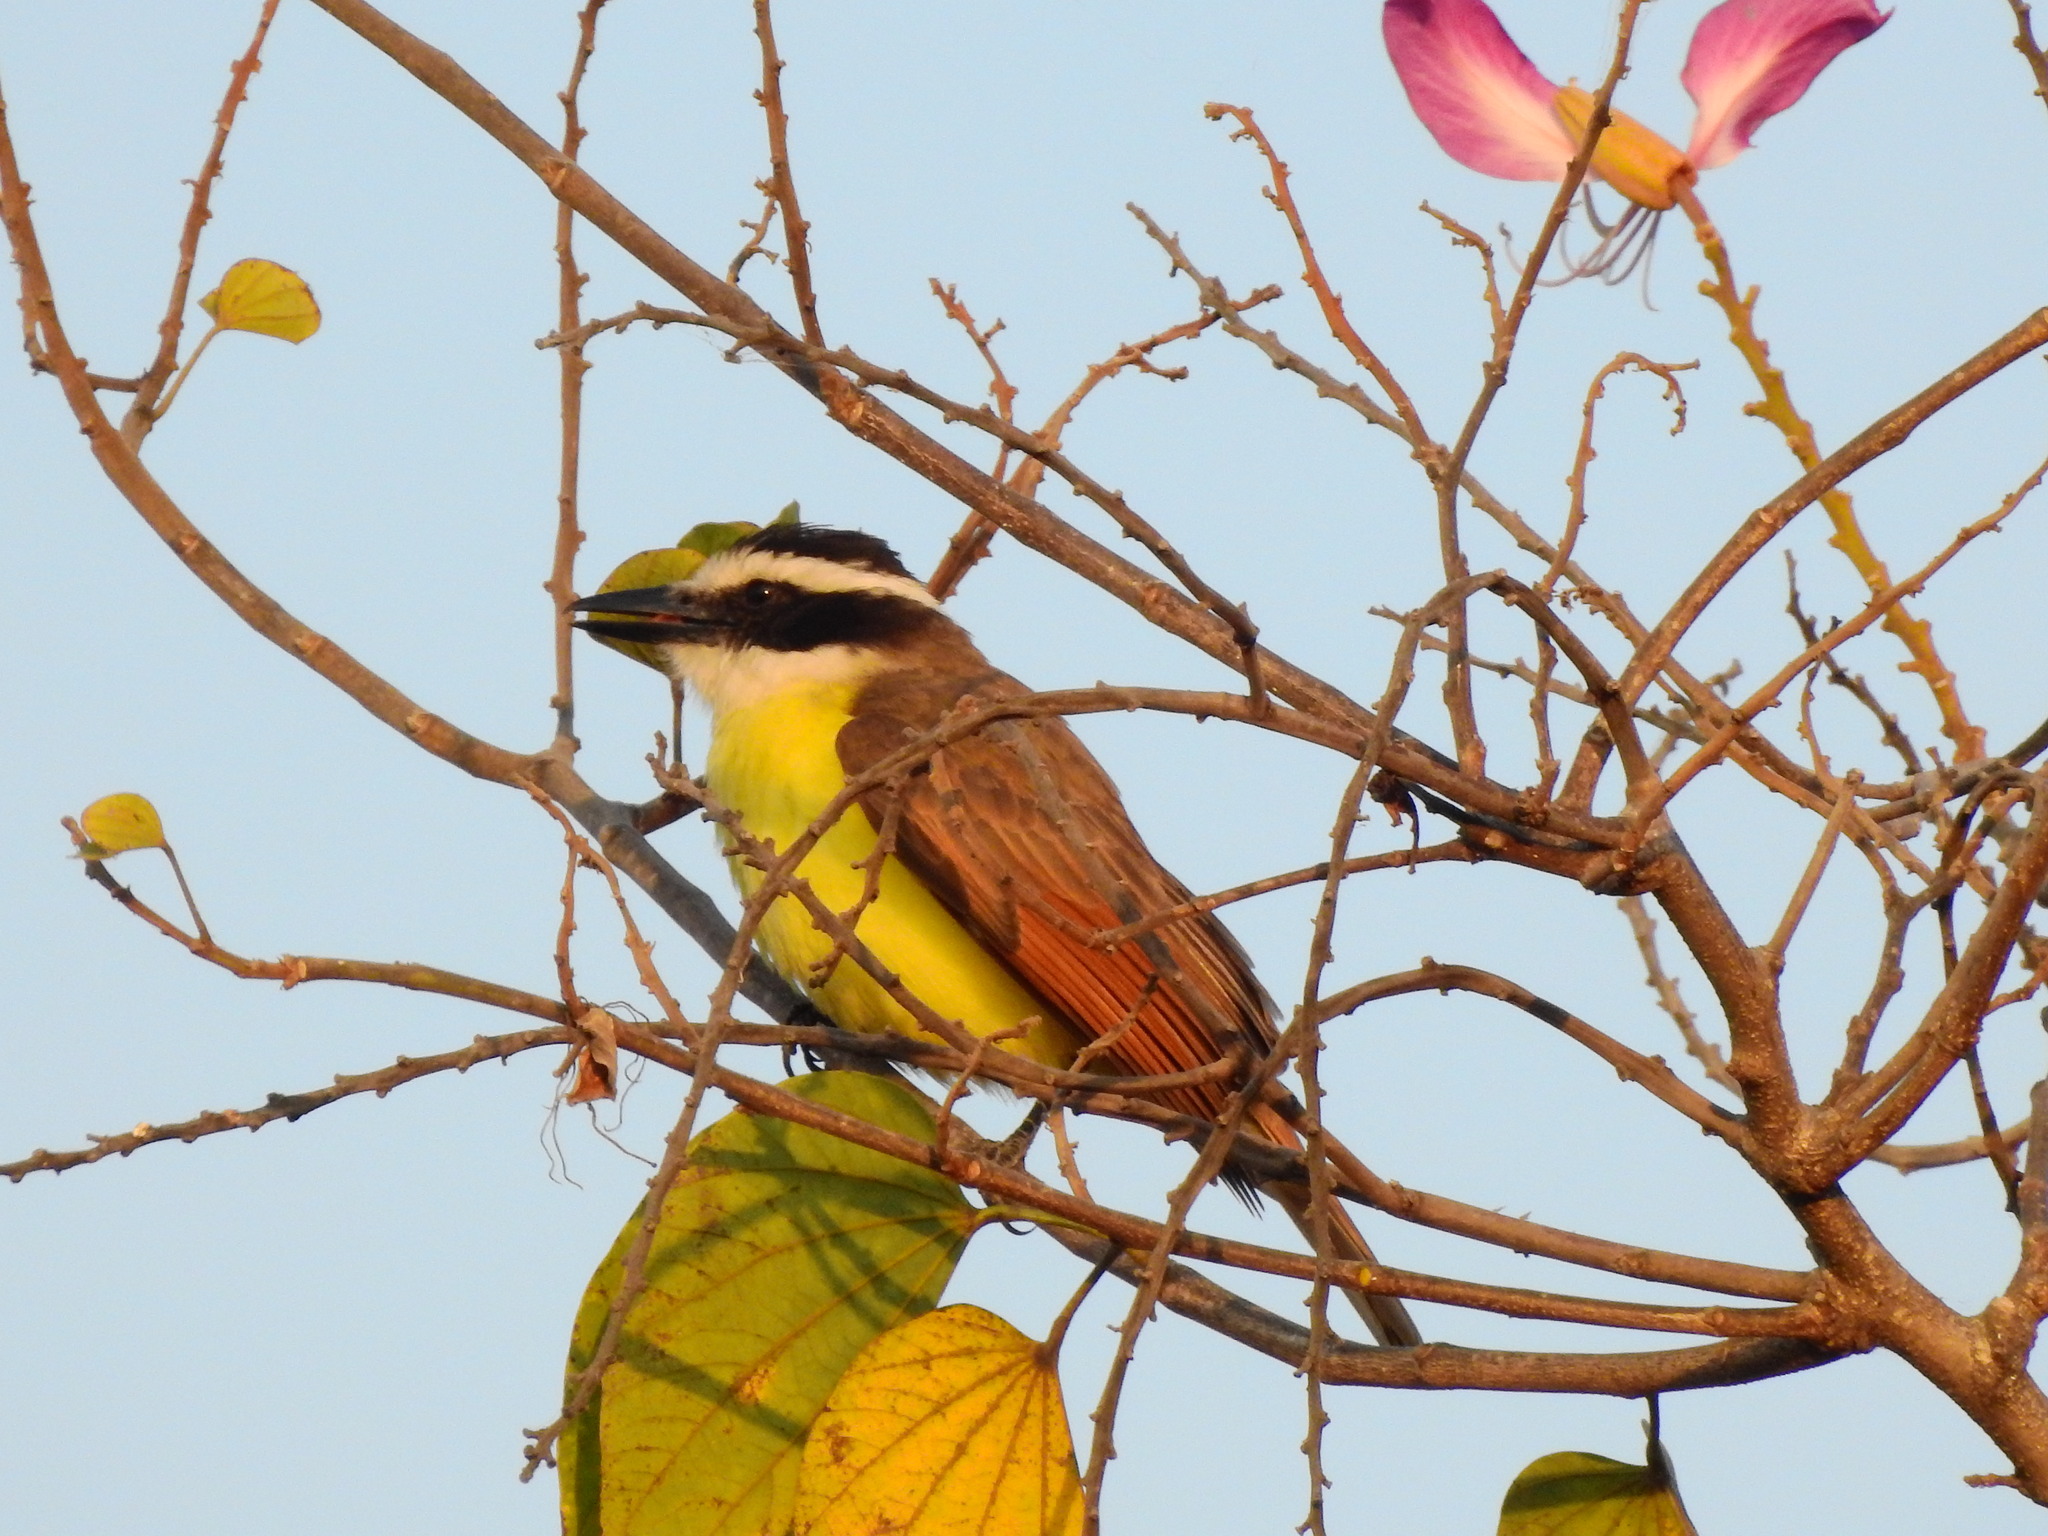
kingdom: Animalia
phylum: Chordata
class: Aves
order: Passeriformes
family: Tyrannidae
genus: Pitangus
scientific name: Pitangus sulphuratus
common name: Great kiskadee
